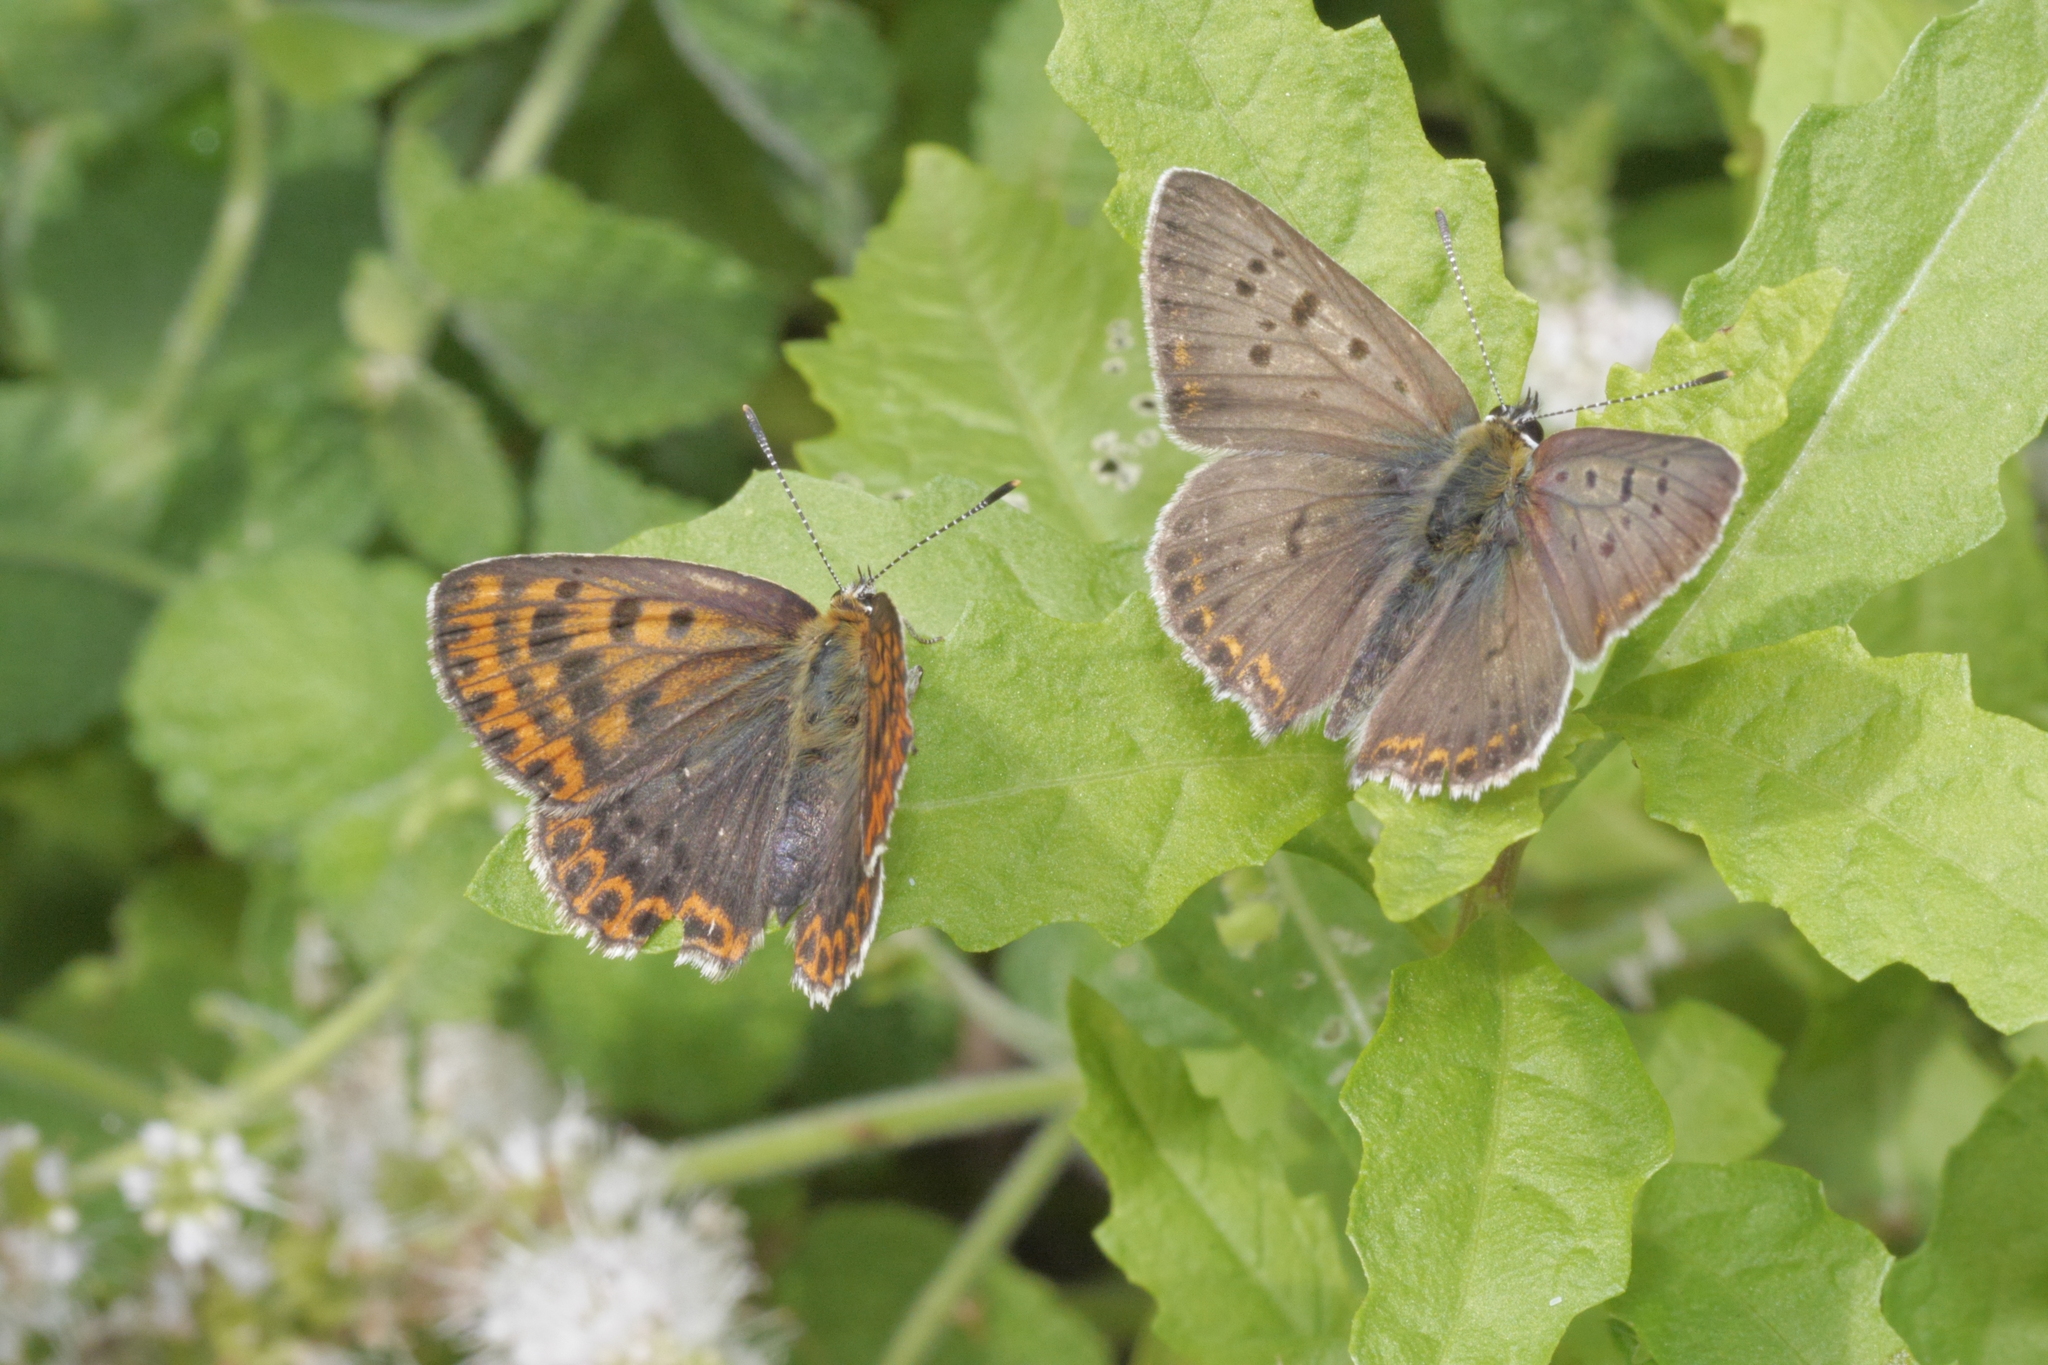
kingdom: Animalia
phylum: Arthropoda
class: Insecta
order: Lepidoptera
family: Lycaenidae
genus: Loweia
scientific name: Loweia tityrus
